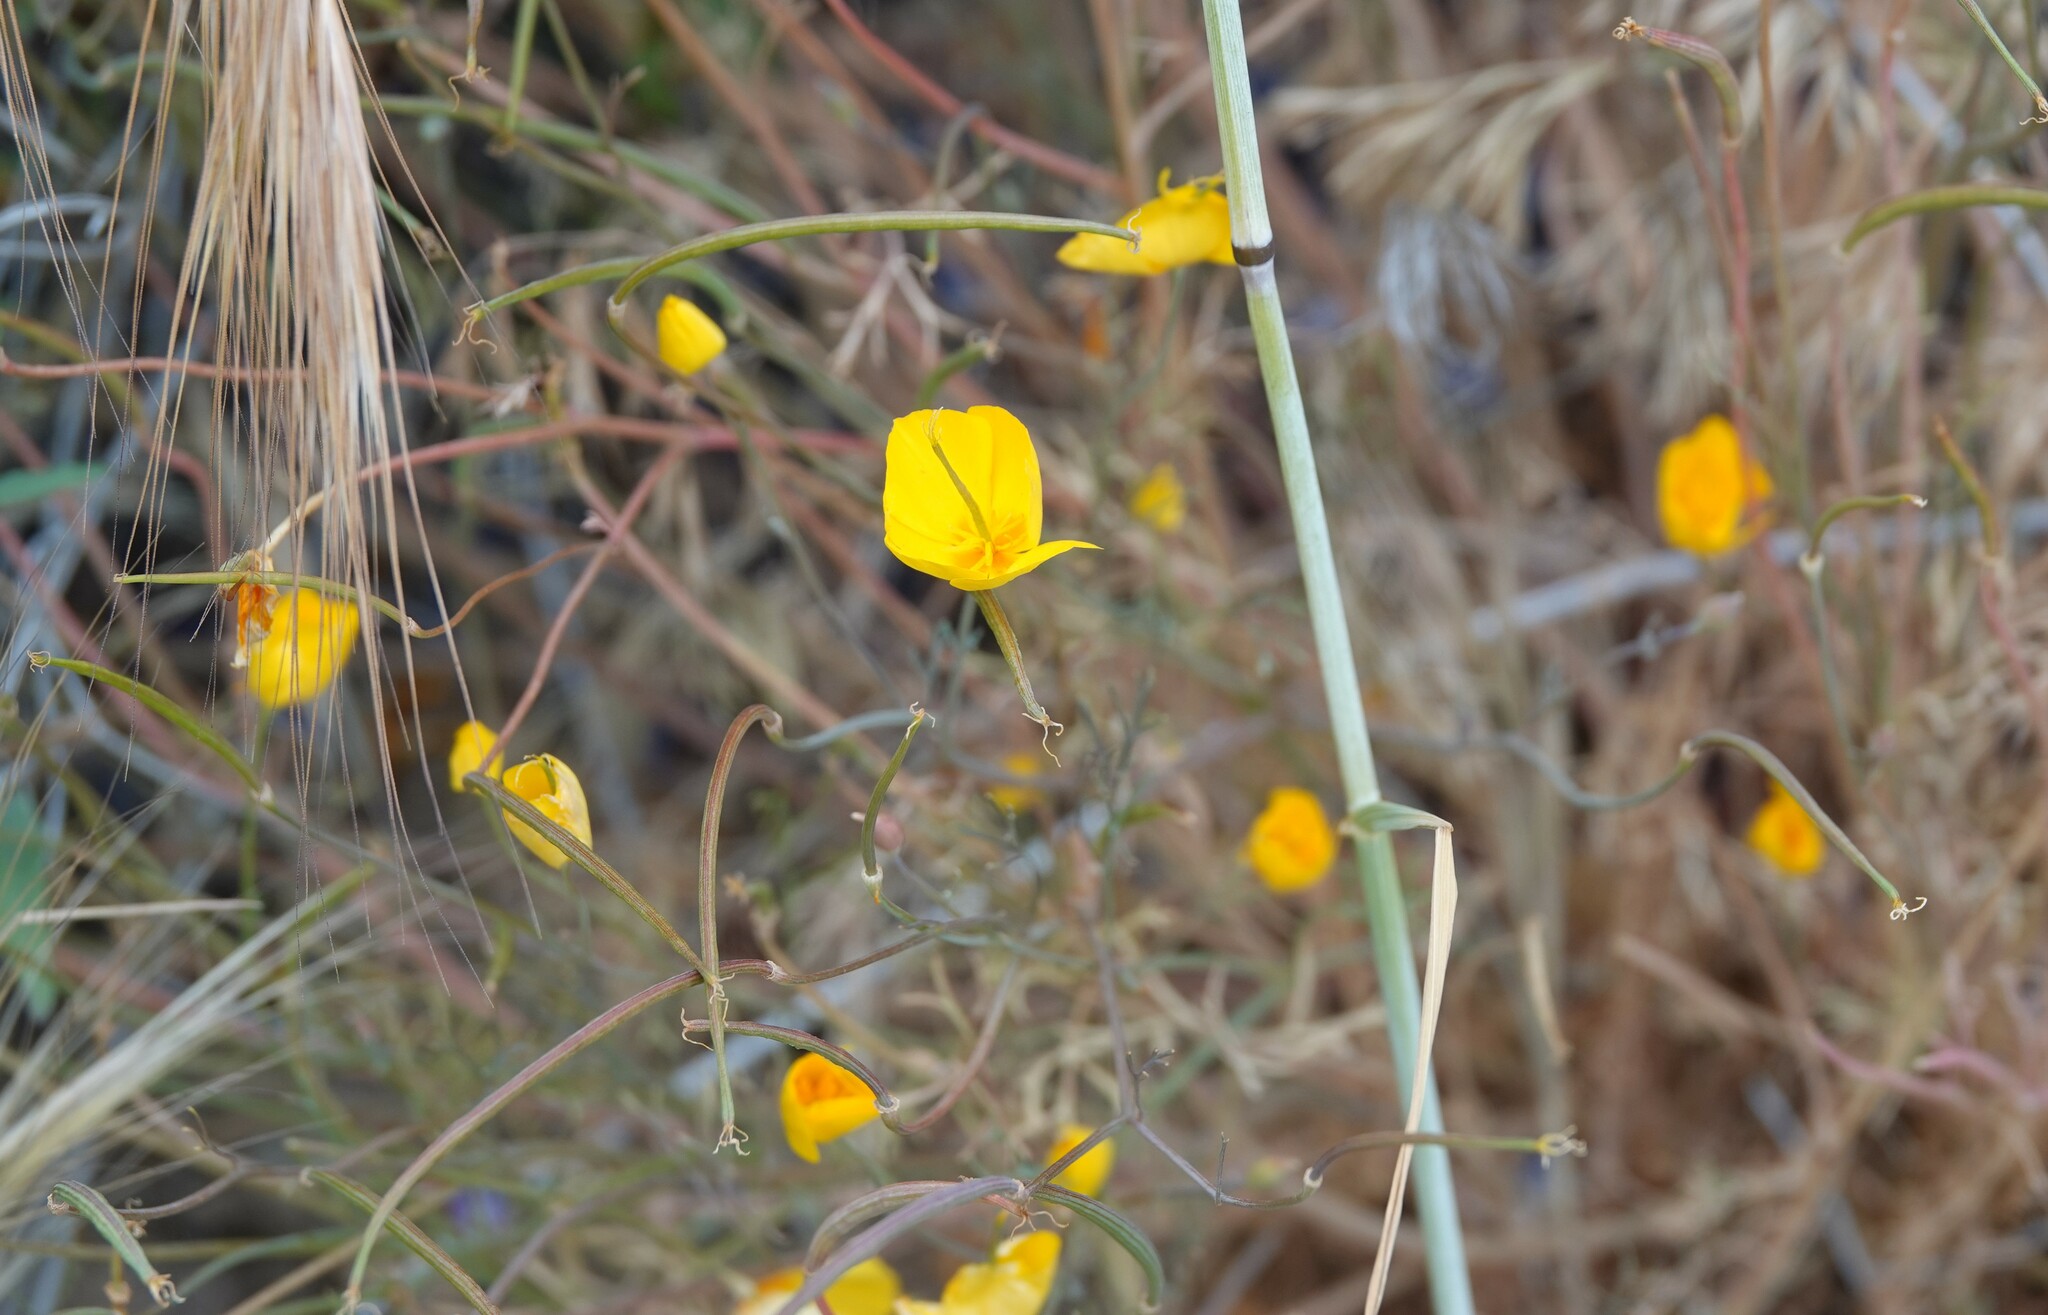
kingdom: Plantae
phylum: Tracheophyta
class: Magnoliopsida
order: Ranunculales
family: Papaveraceae
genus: Eschscholzia
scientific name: Eschscholzia caespitosa
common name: Tufted california-poppy
